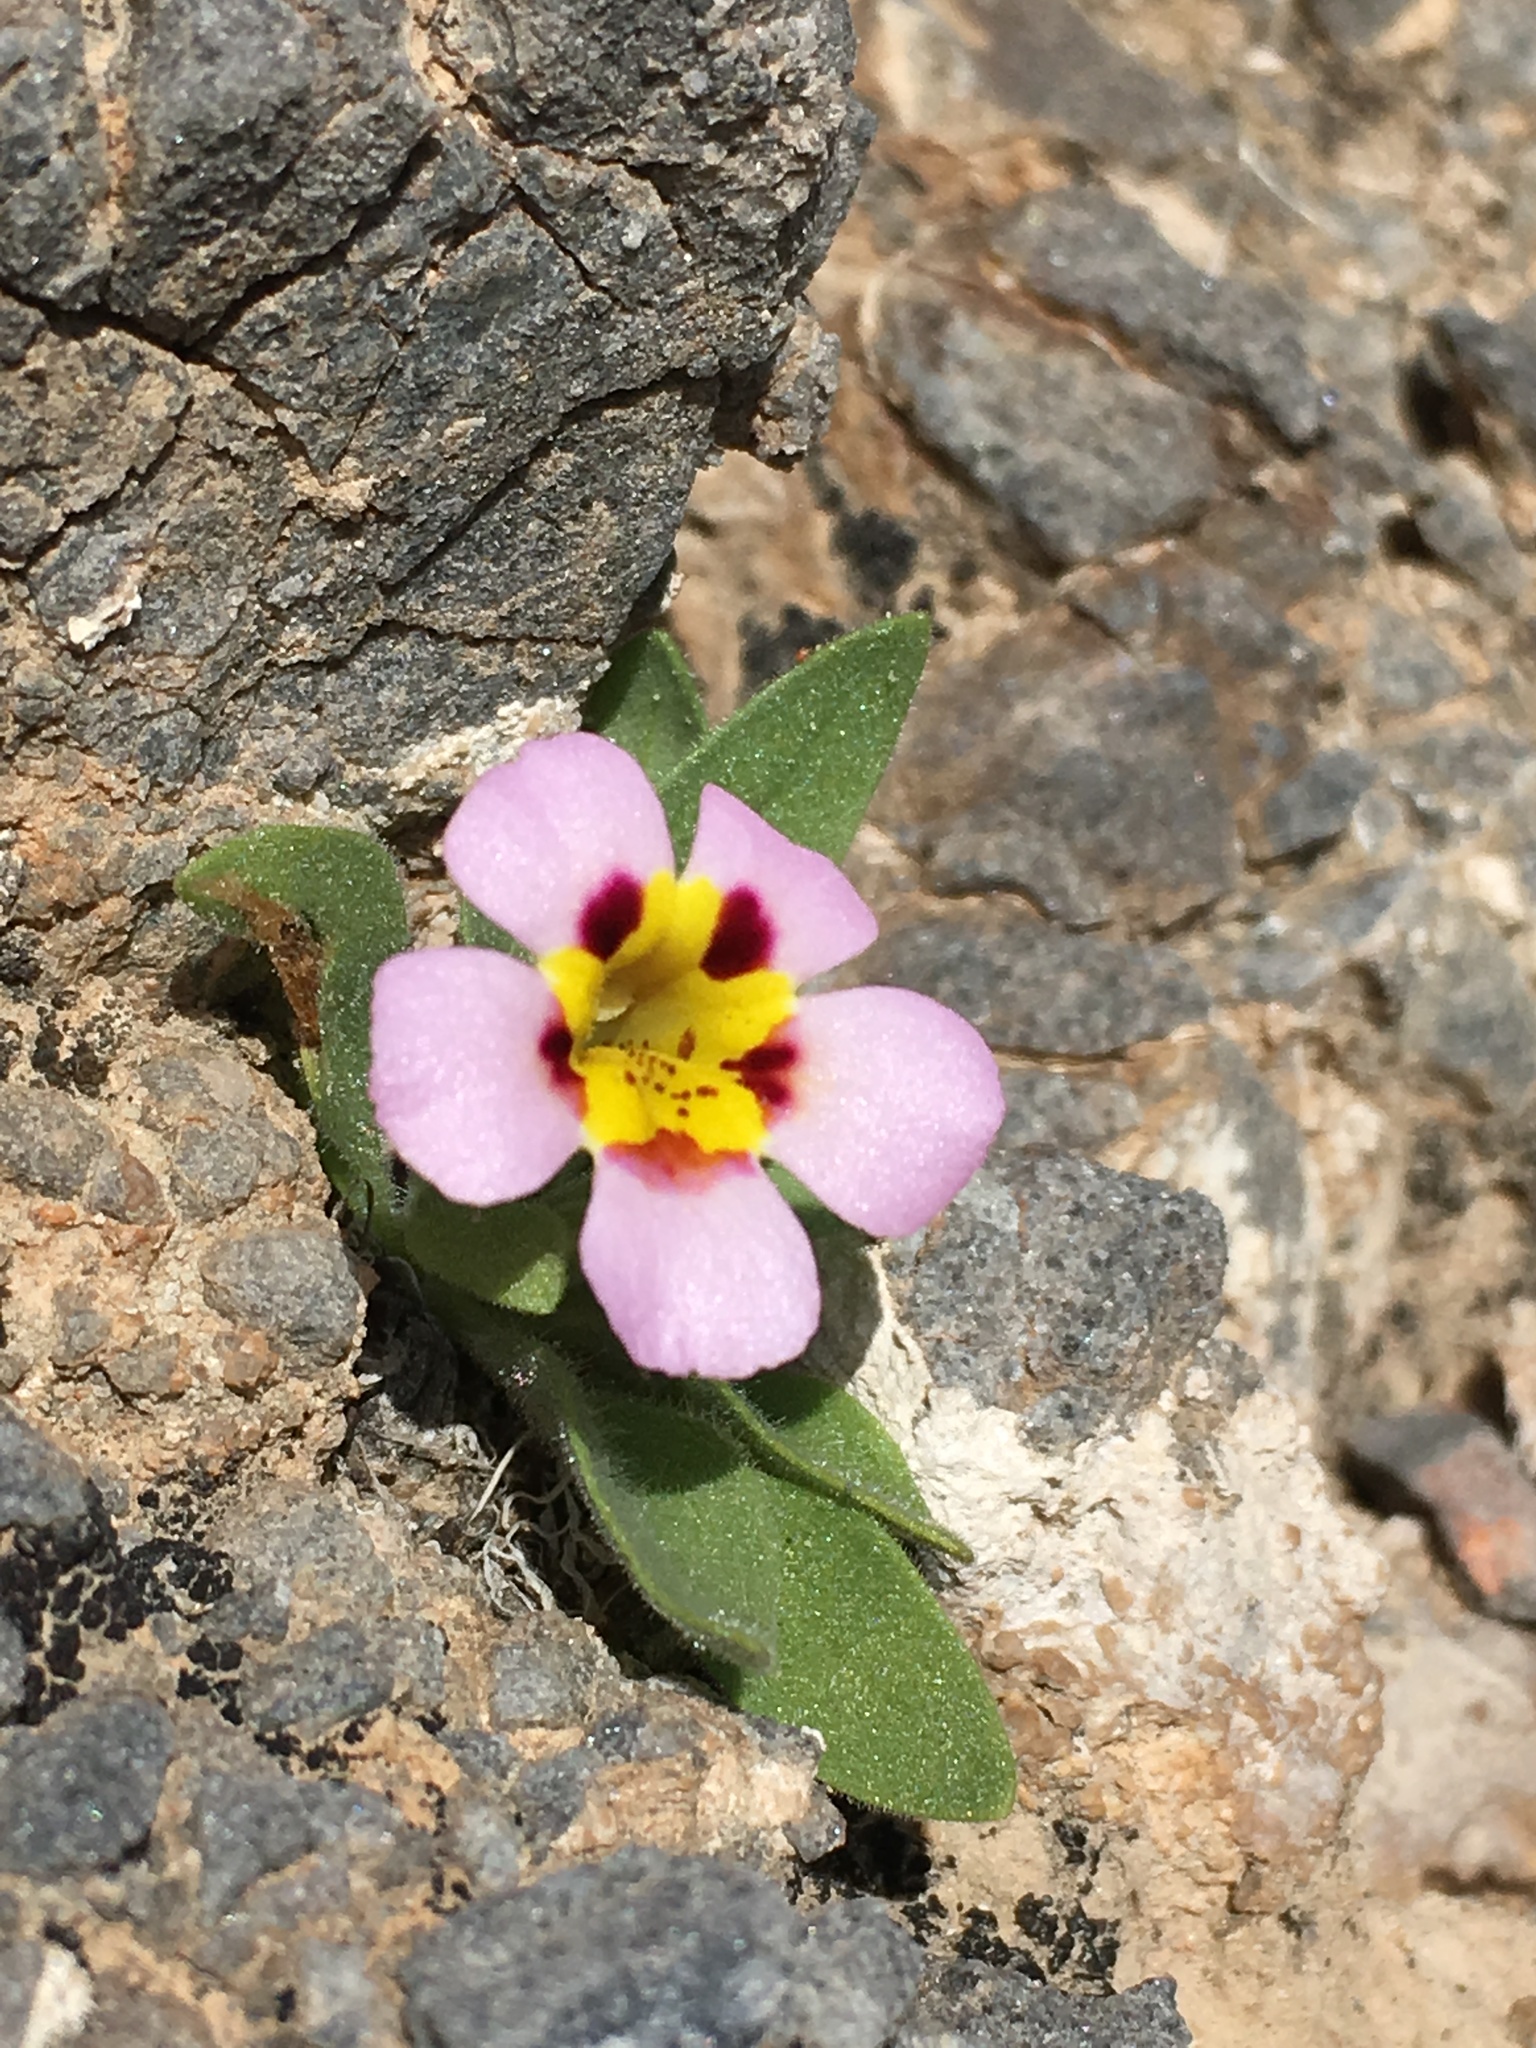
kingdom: Plantae
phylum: Tracheophyta
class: Magnoliopsida
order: Lamiales
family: Phrymaceae
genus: Diplacus
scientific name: Diplacus rupicola
